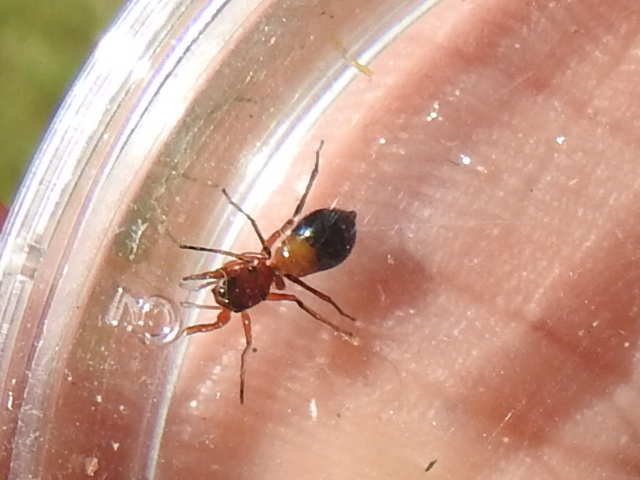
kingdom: Animalia
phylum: Arthropoda
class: Arachnida
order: Araneae
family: Salticidae
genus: Peckhamia
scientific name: Peckhamia
